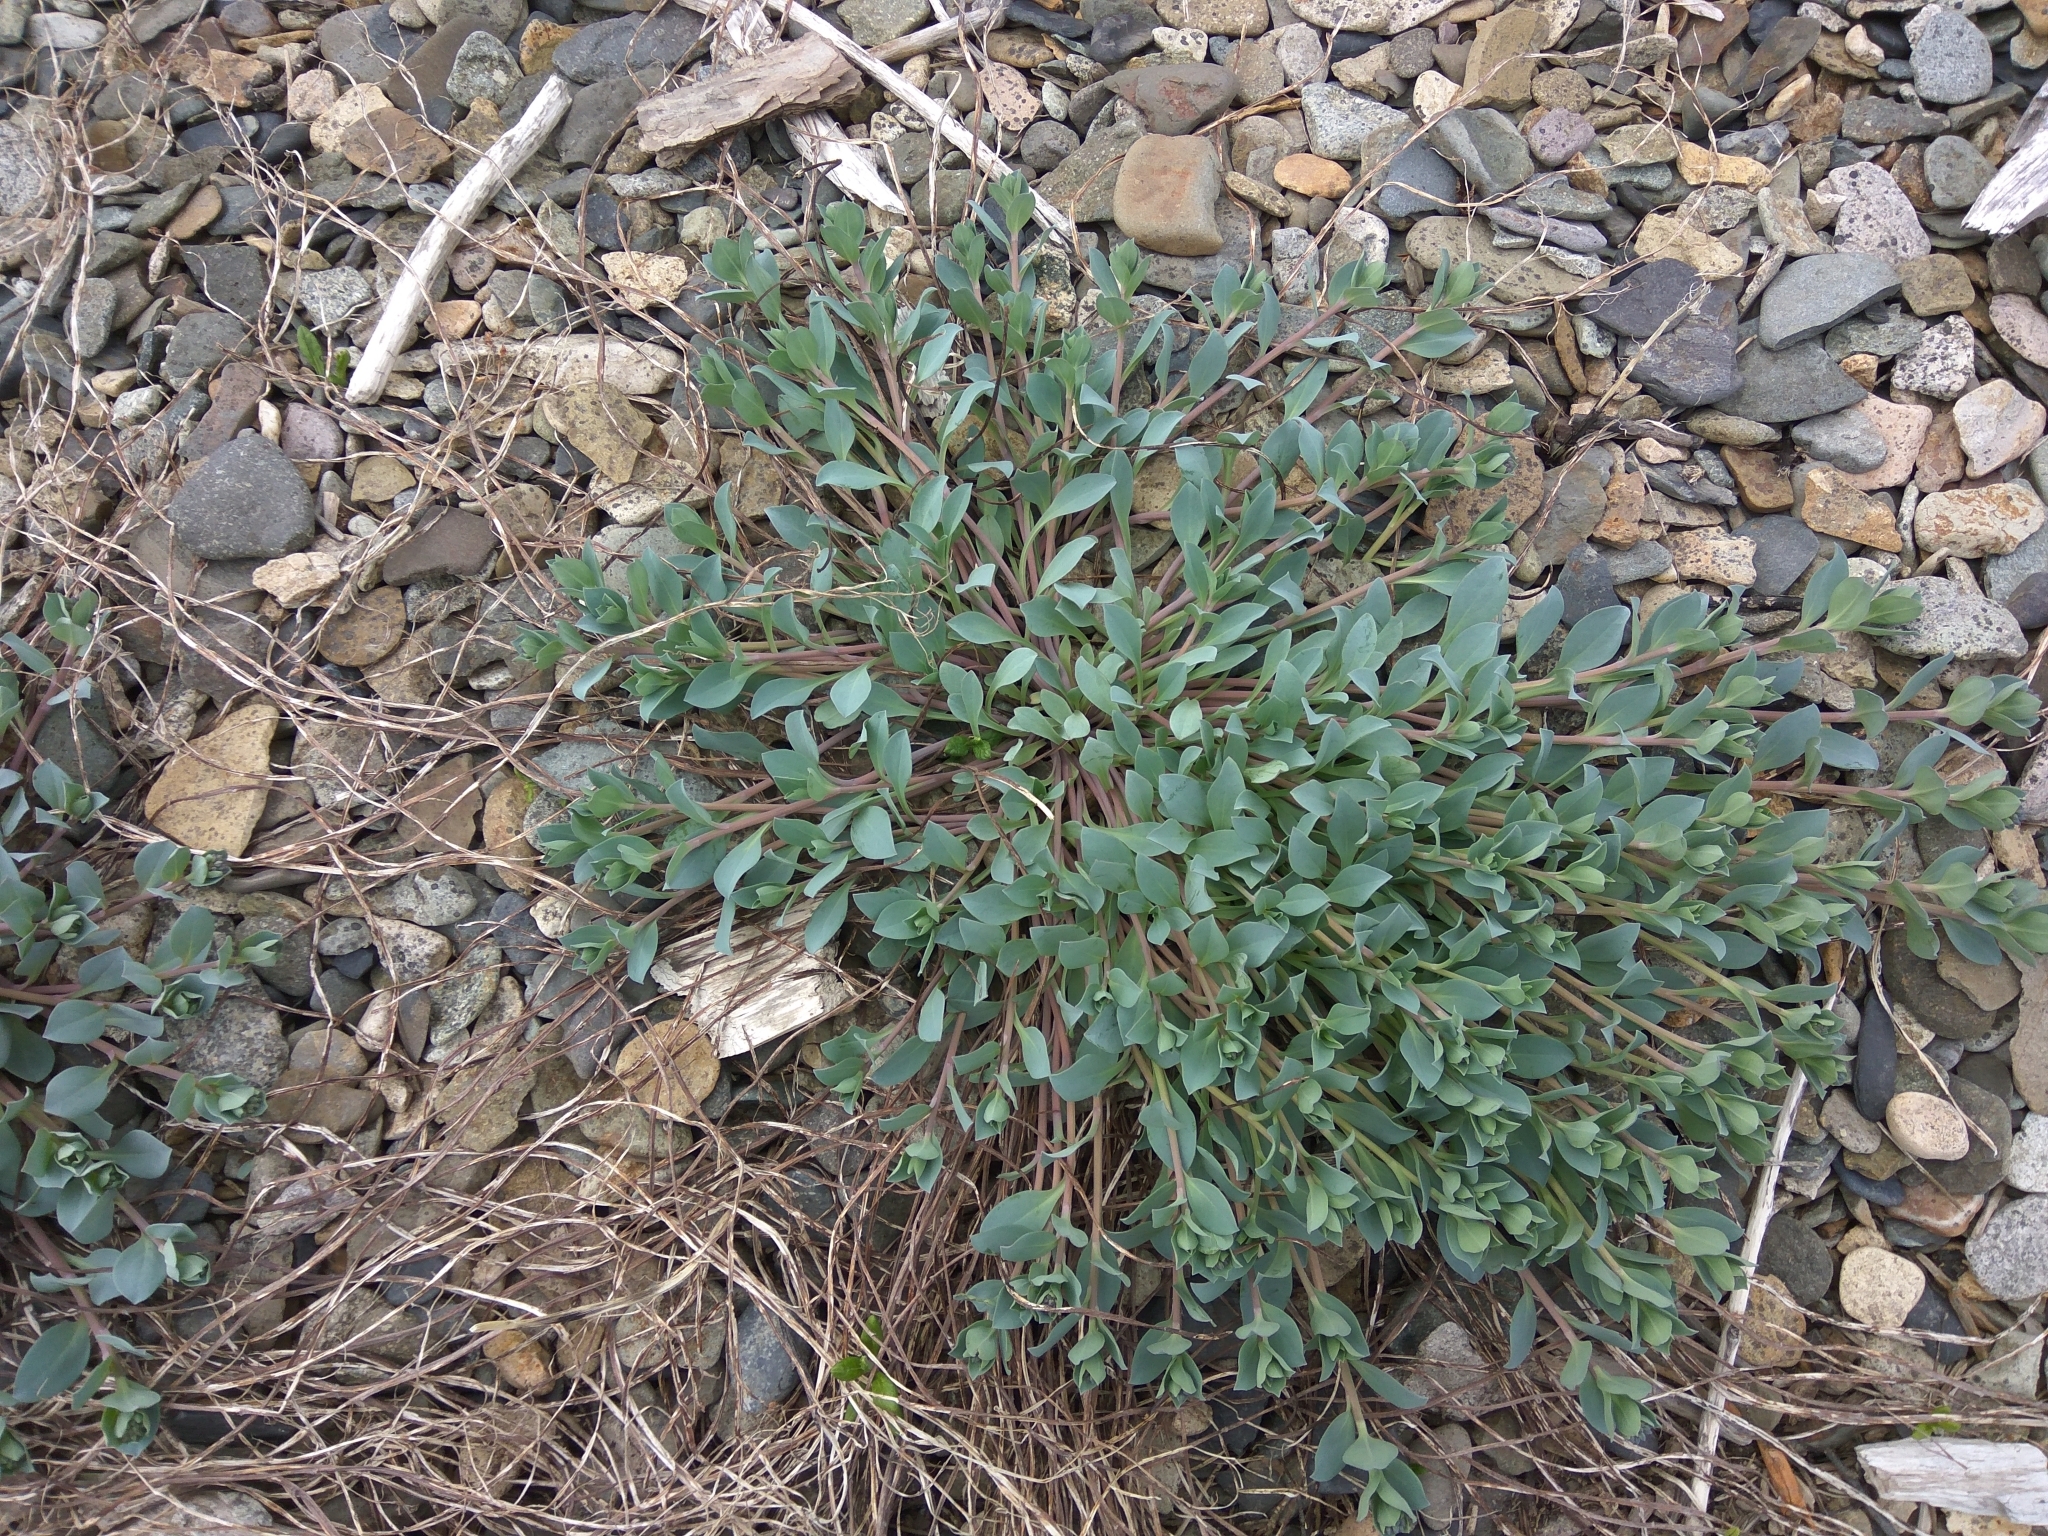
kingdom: Plantae
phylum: Tracheophyta
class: Magnoliopsida
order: Boraginales
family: Boraginaceae
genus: Mertensia
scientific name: Mertensia maritima
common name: Oysterplant
